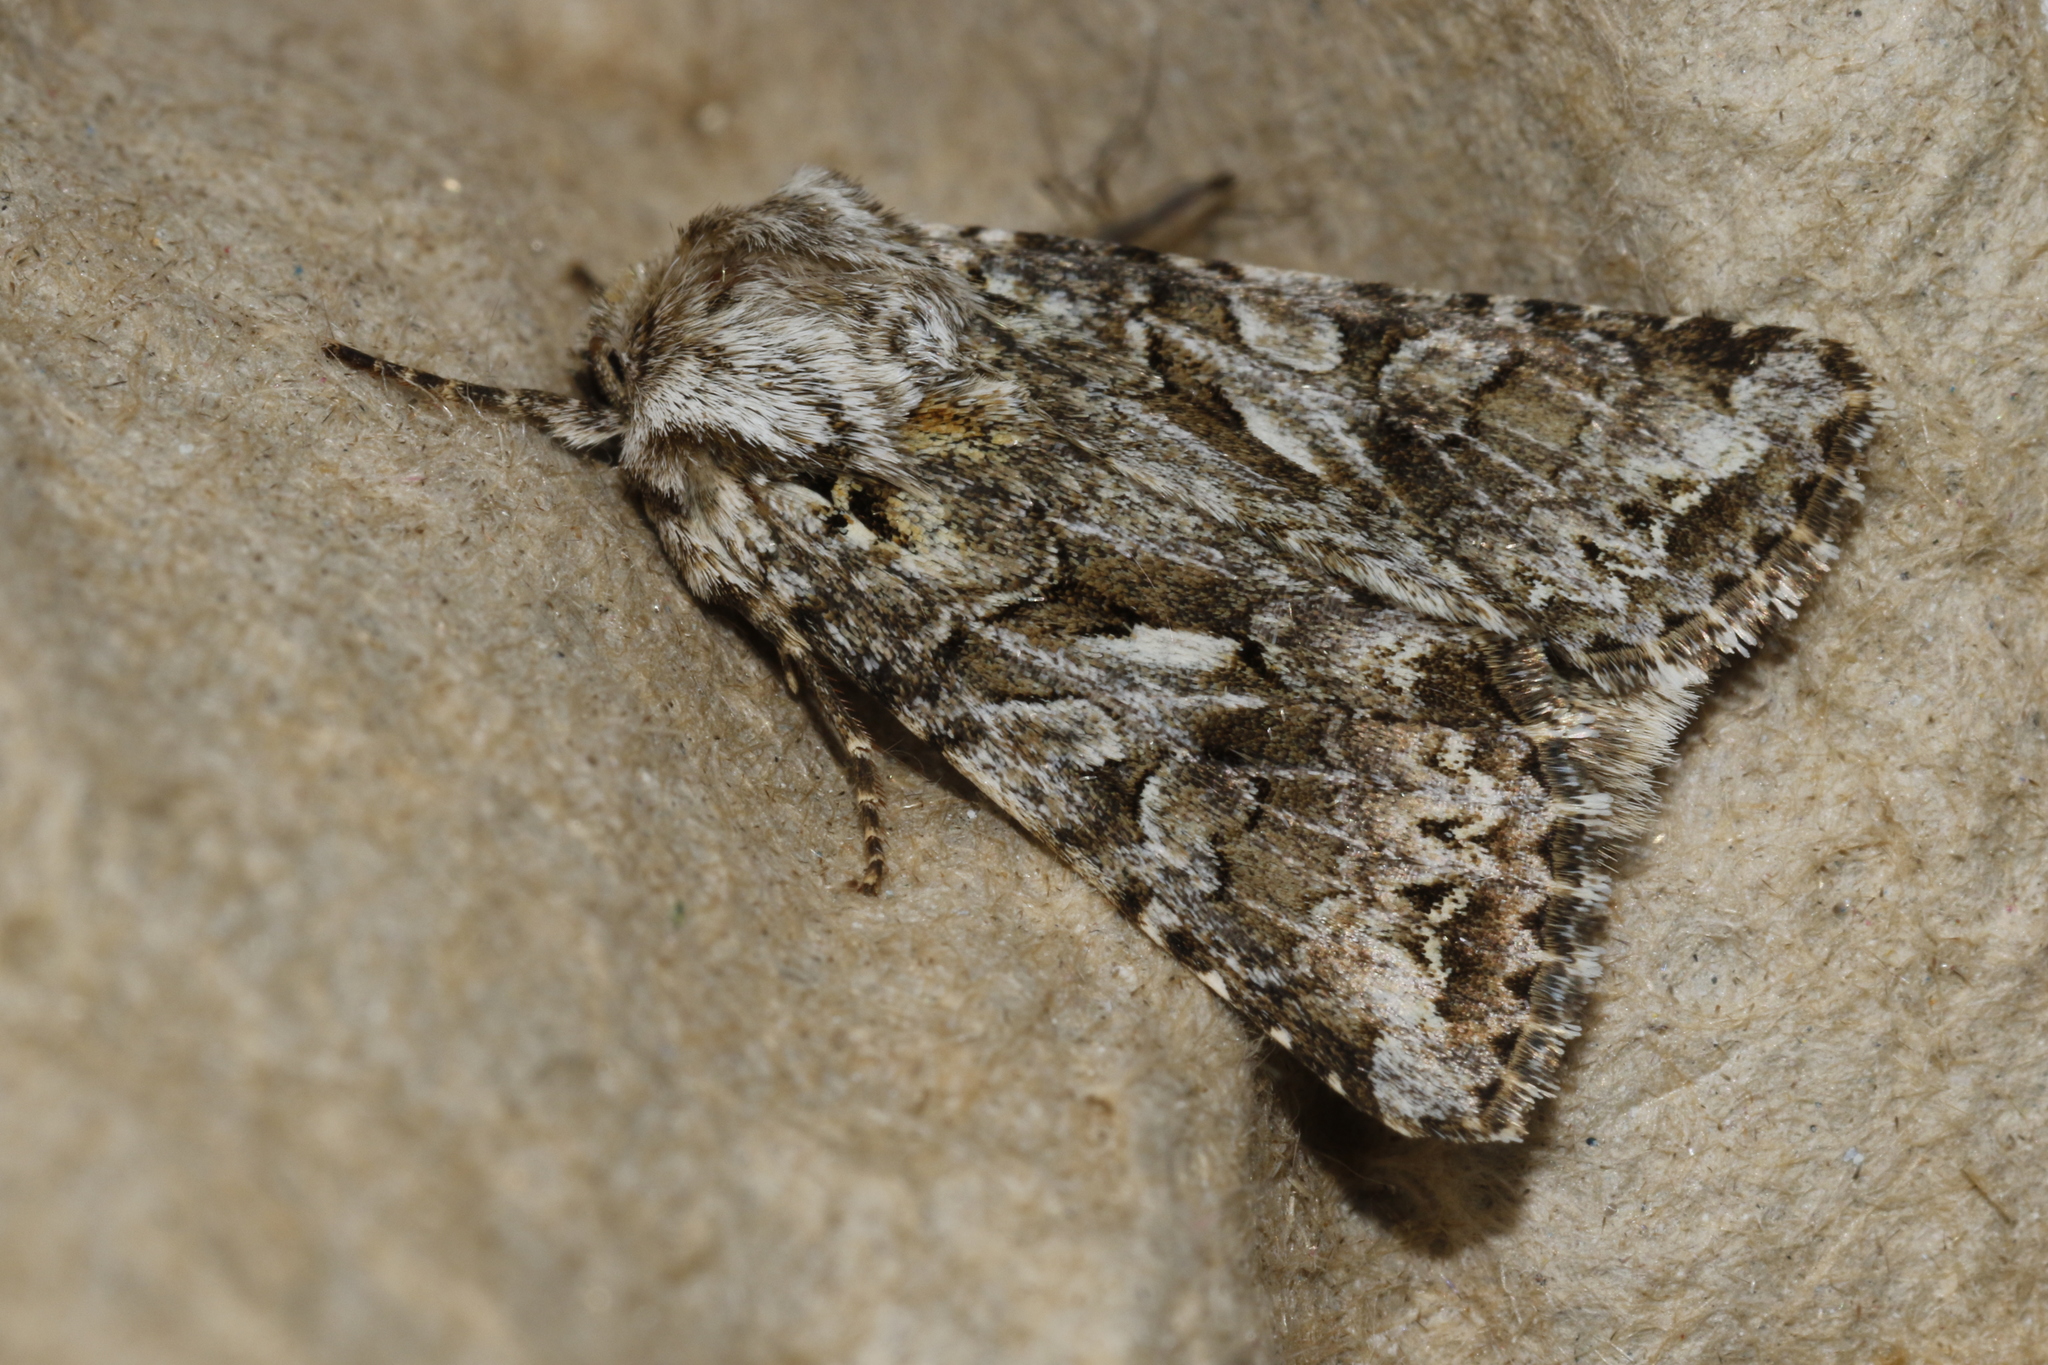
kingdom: Animalia
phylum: Arthropoda
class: Insecta
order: Lepidoptera
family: Noctuidae
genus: Hada
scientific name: Hada plebeja
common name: Shears
